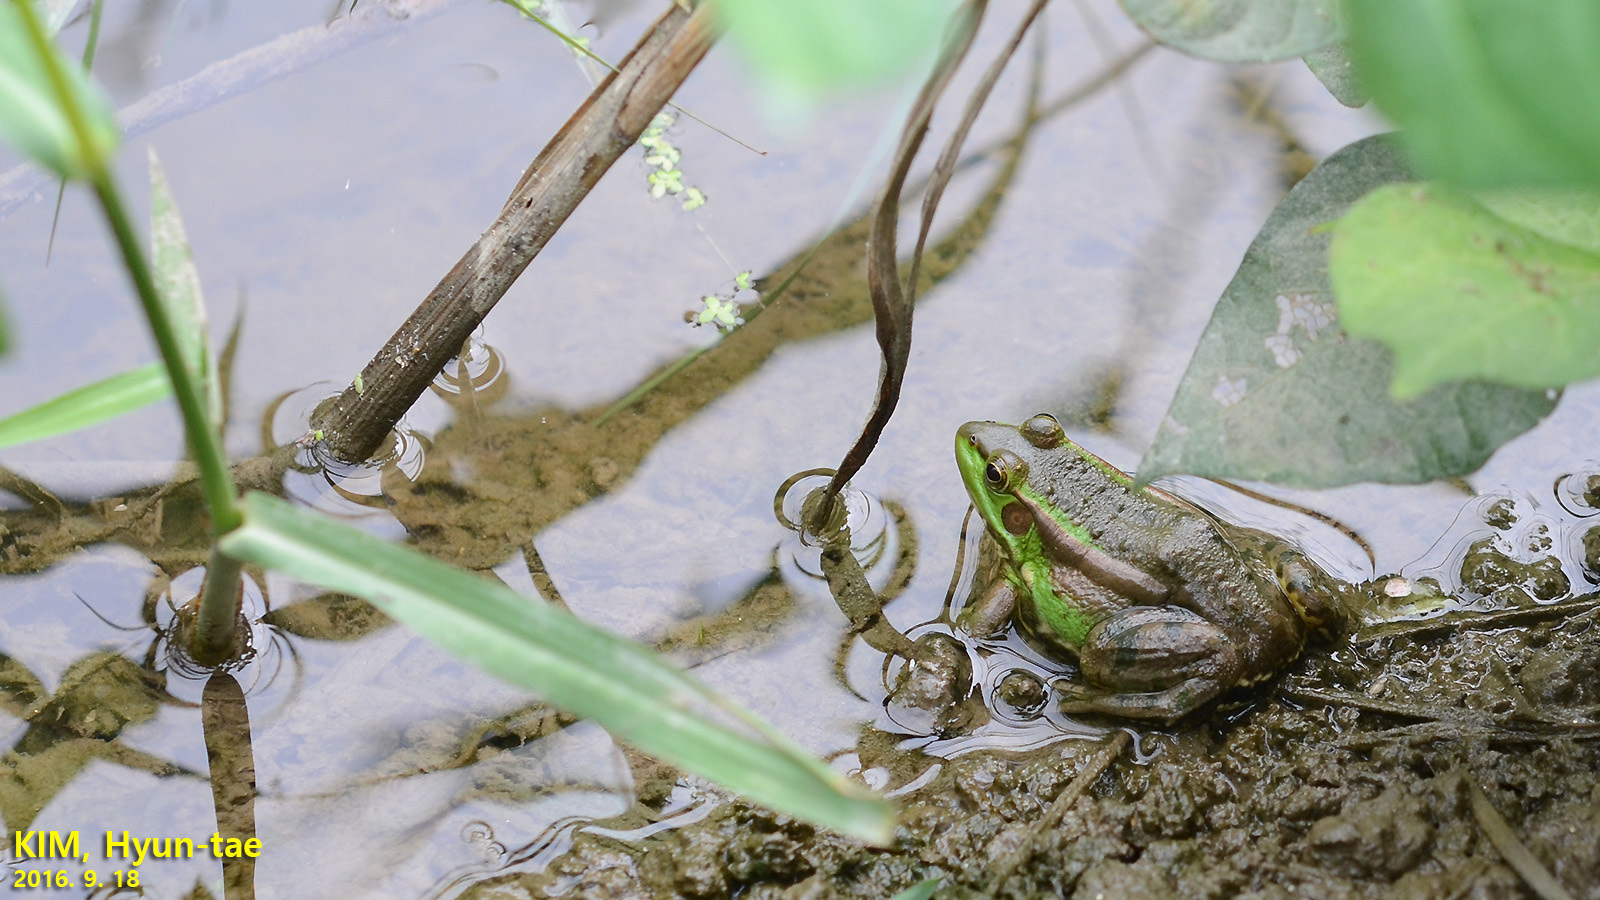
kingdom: Animalia
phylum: Chordata
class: Amphibia
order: Anura
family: Ranidae
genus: Pelophylax
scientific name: Pelophylax chosenicus
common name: Gold-spotted pond frog
